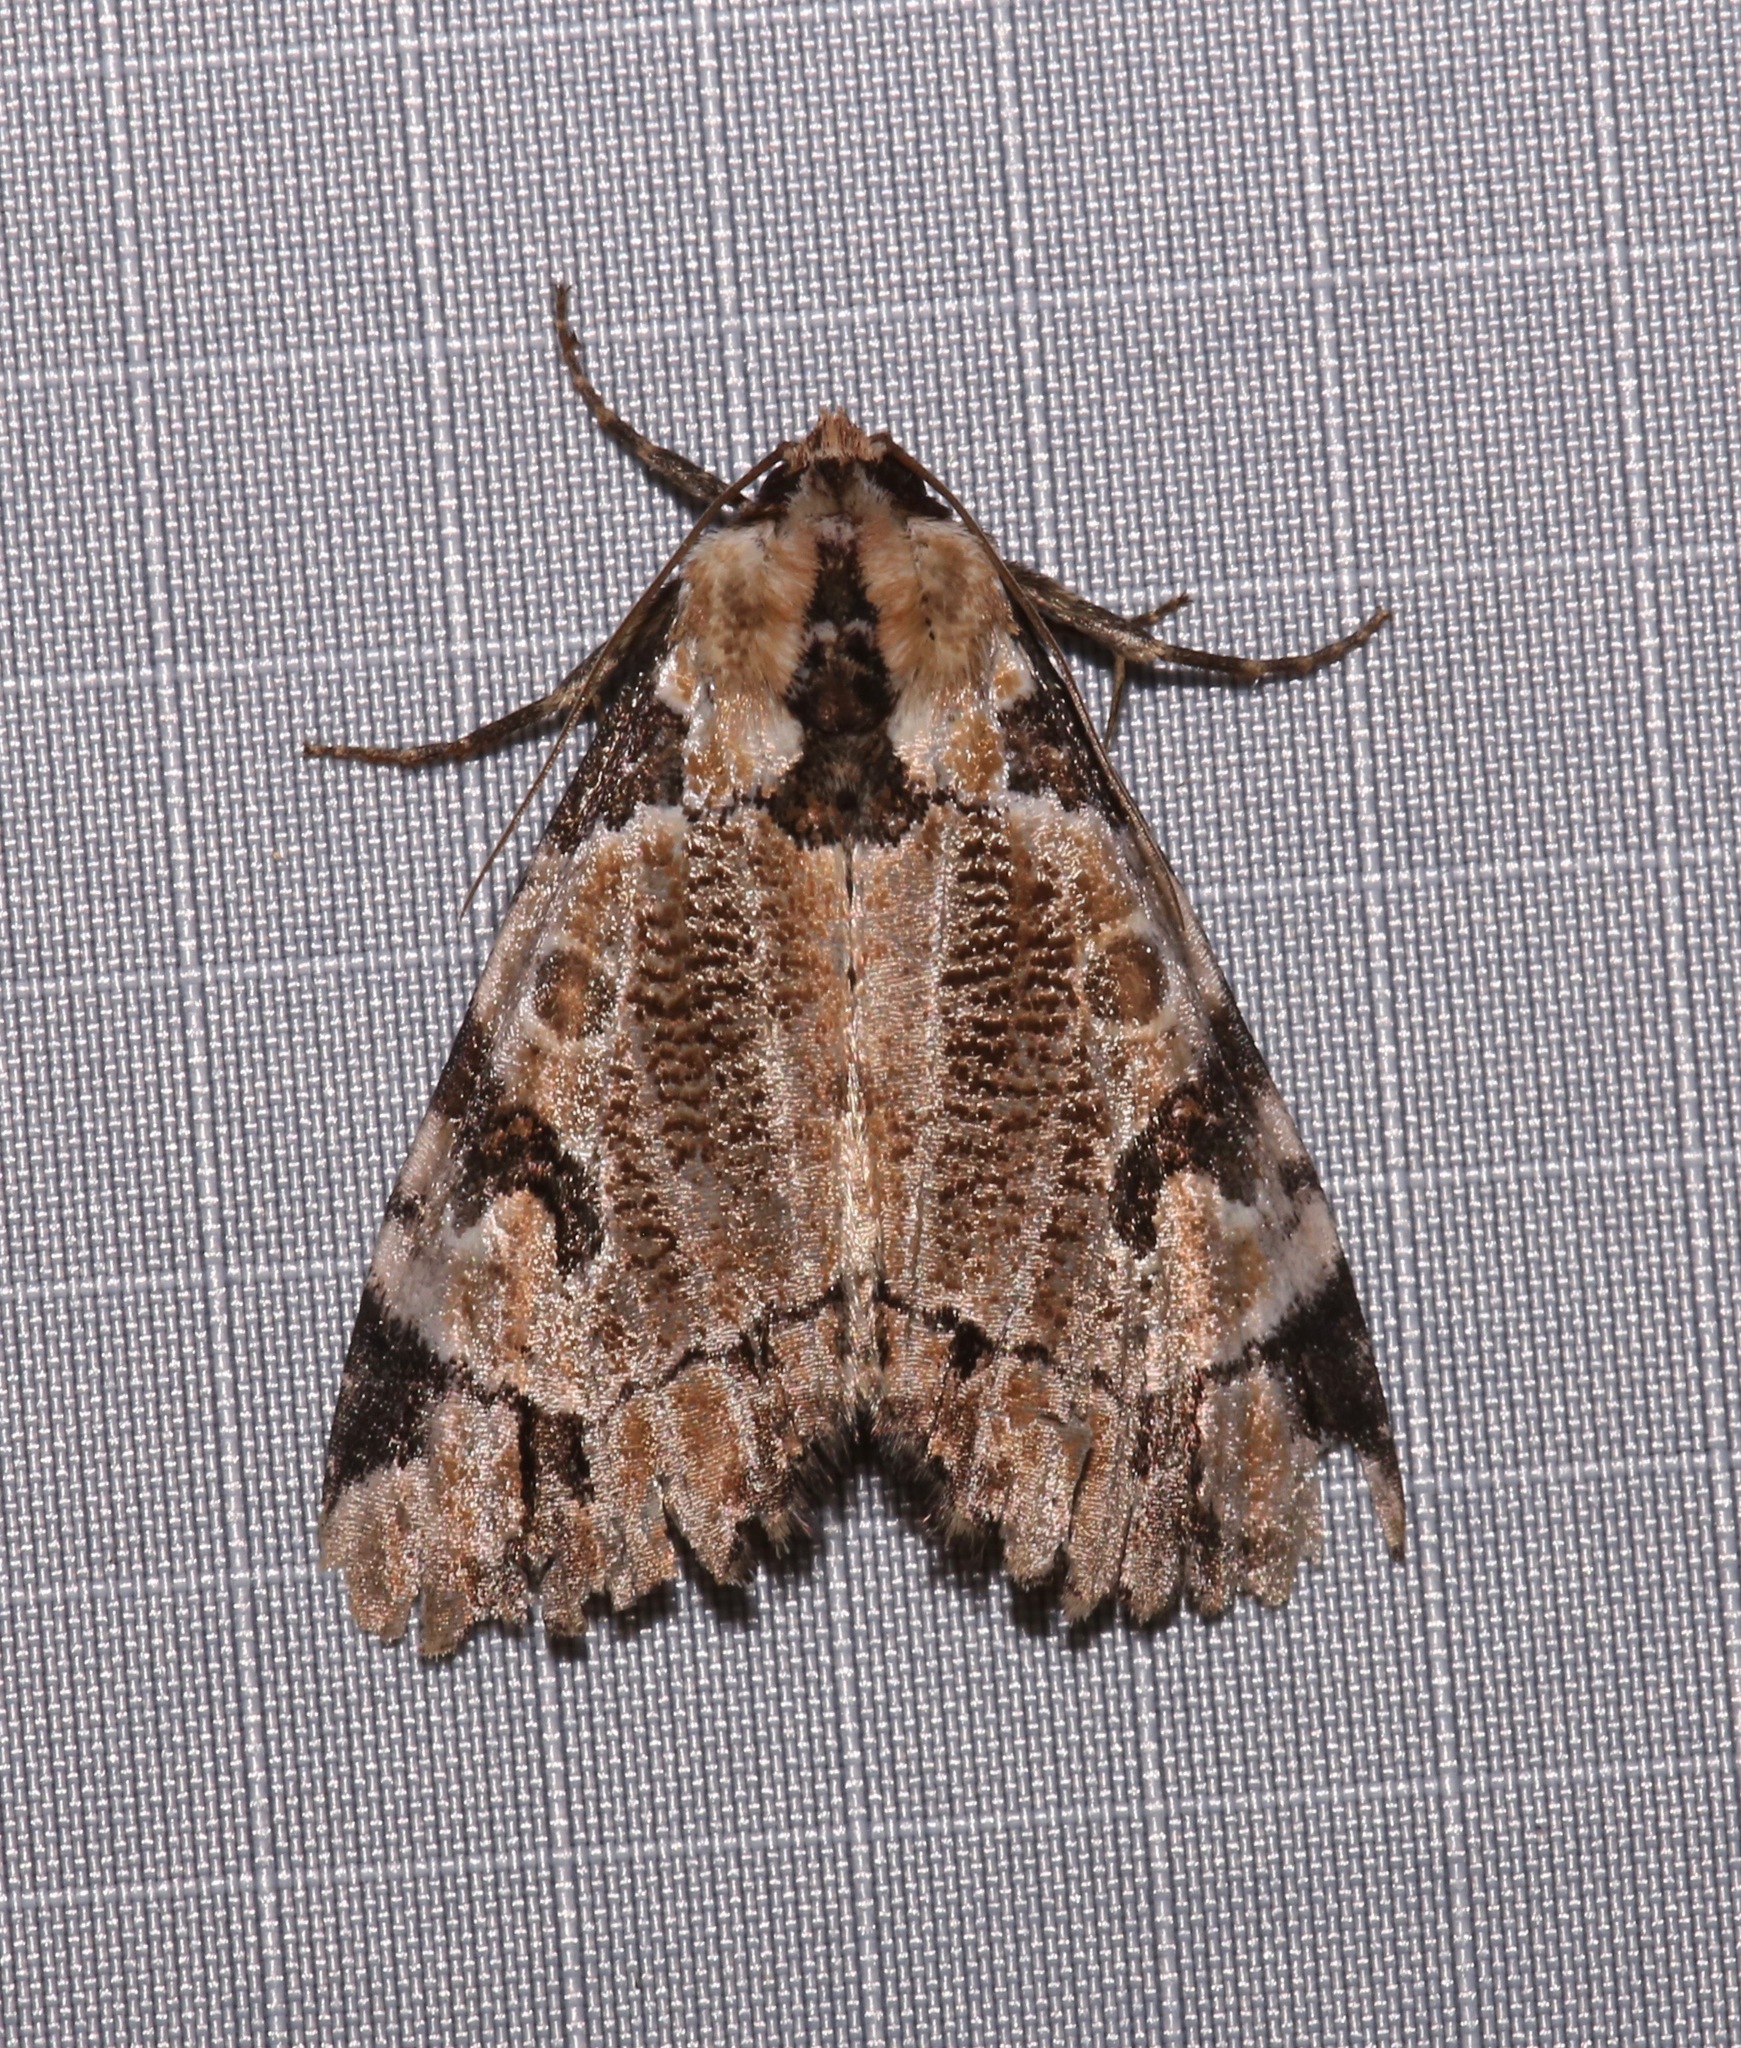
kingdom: Animalia
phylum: Arthropoda
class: Insecta
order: Lepidoptera
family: Noctuidae
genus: Stibaera
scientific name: Stibaera thyatiroides
